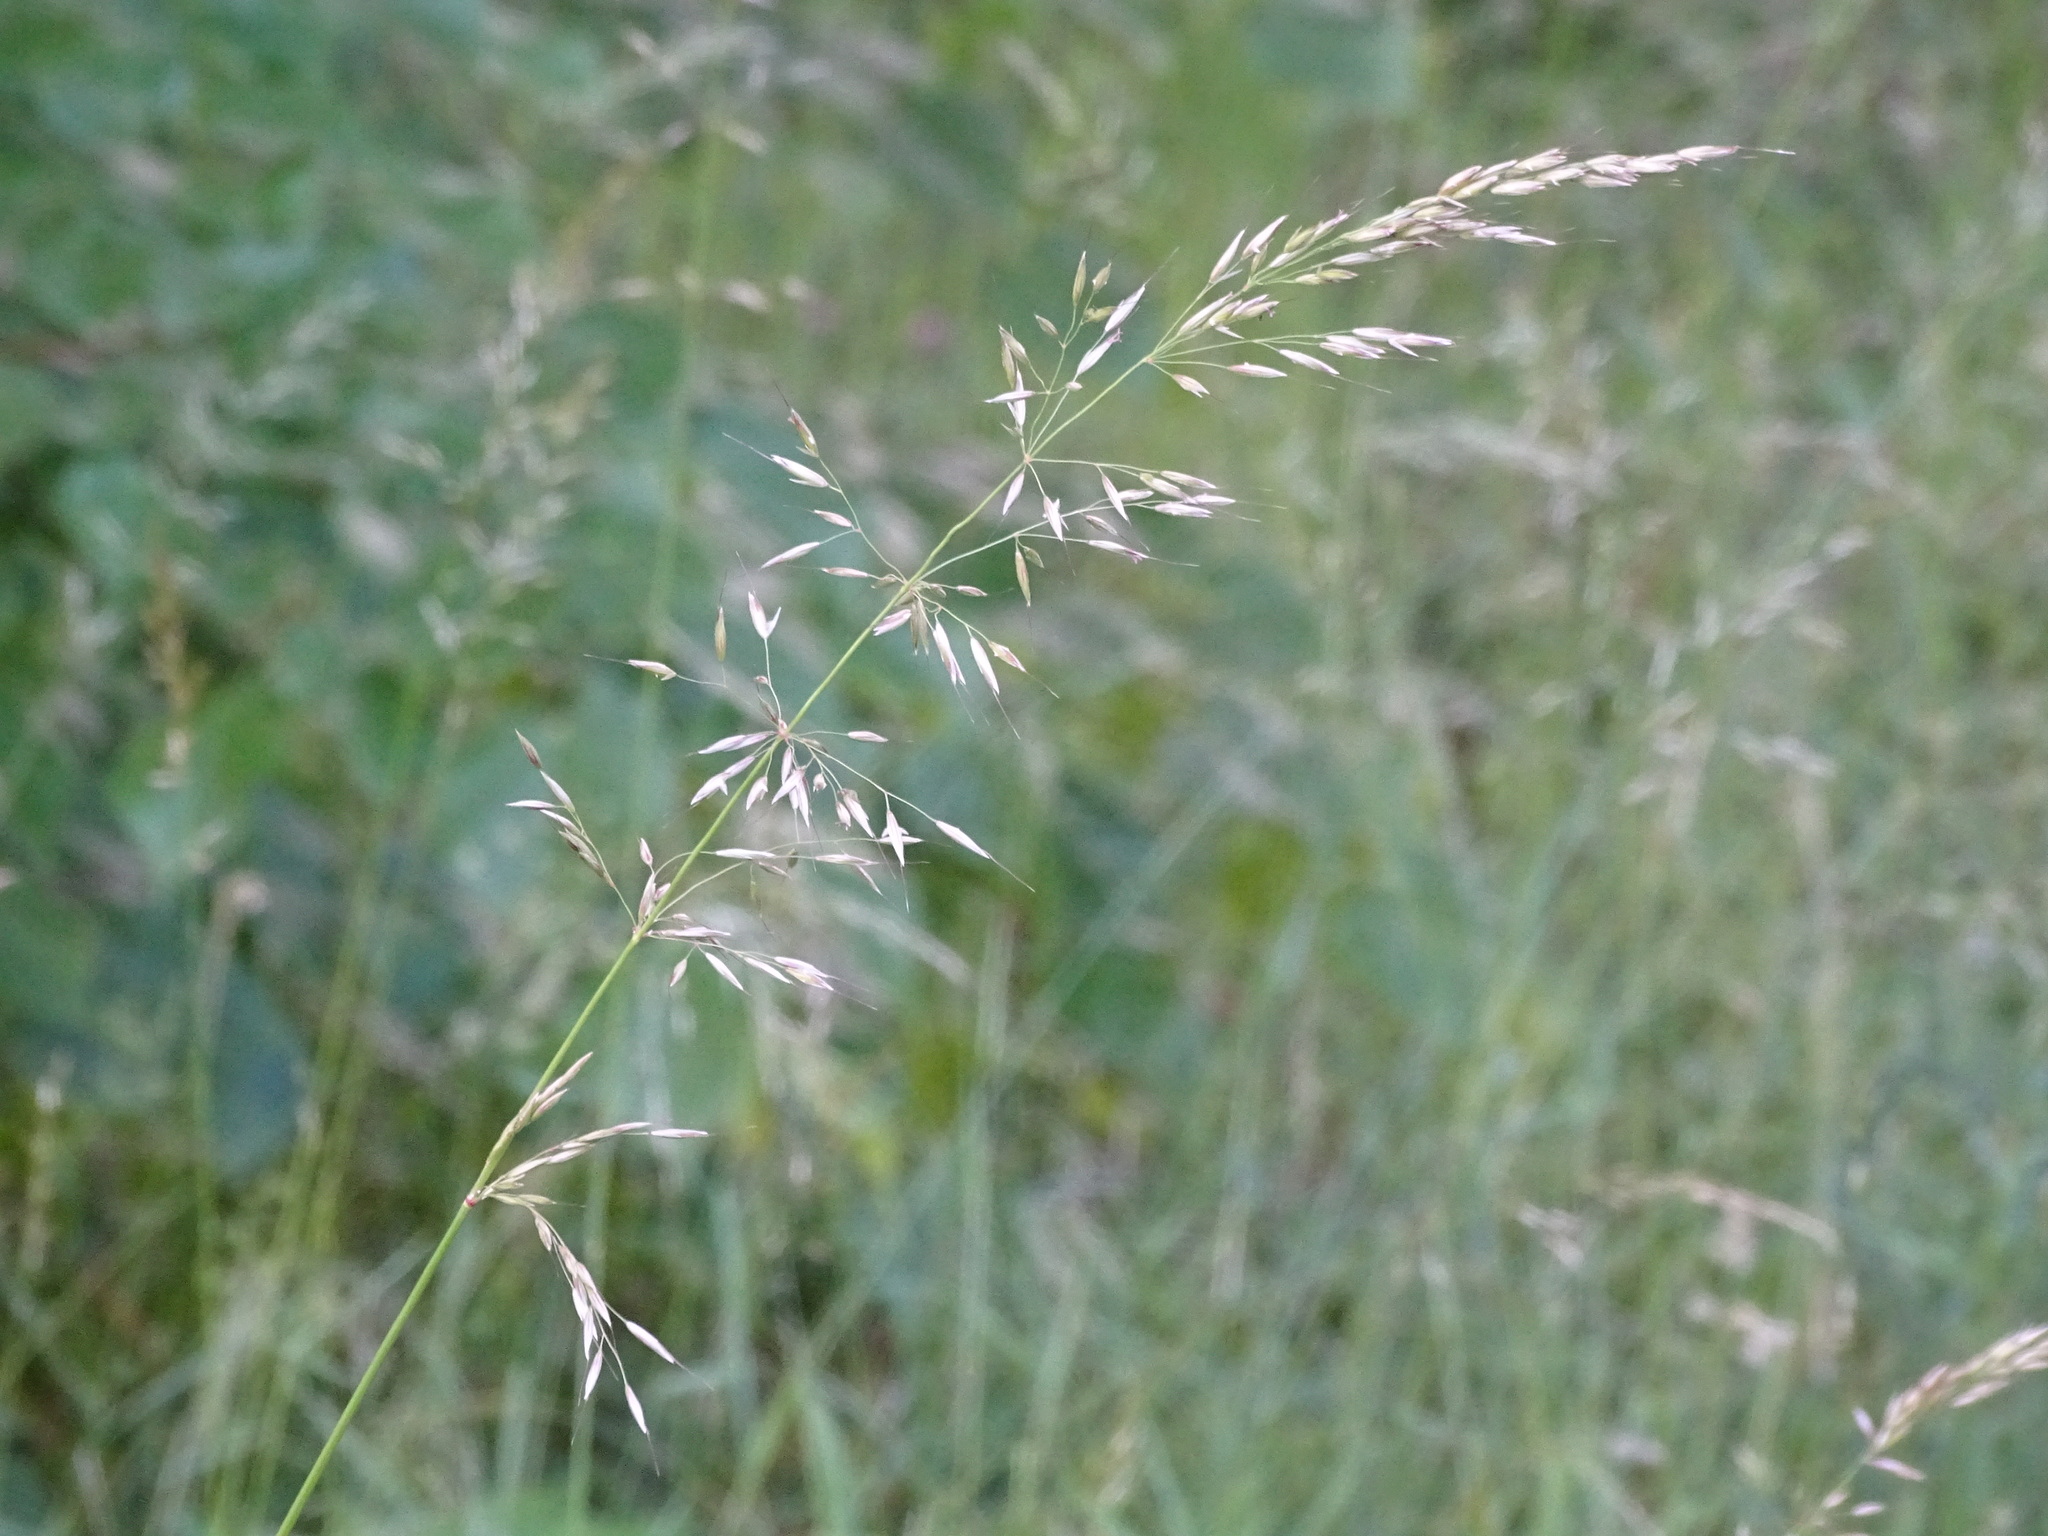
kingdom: Plantae
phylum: Tracheophyta
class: Liliopsida
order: Poales
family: Poaceae
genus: Arrhenatherum
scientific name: Arrhenatherum elatius
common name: Tall oatgrass
